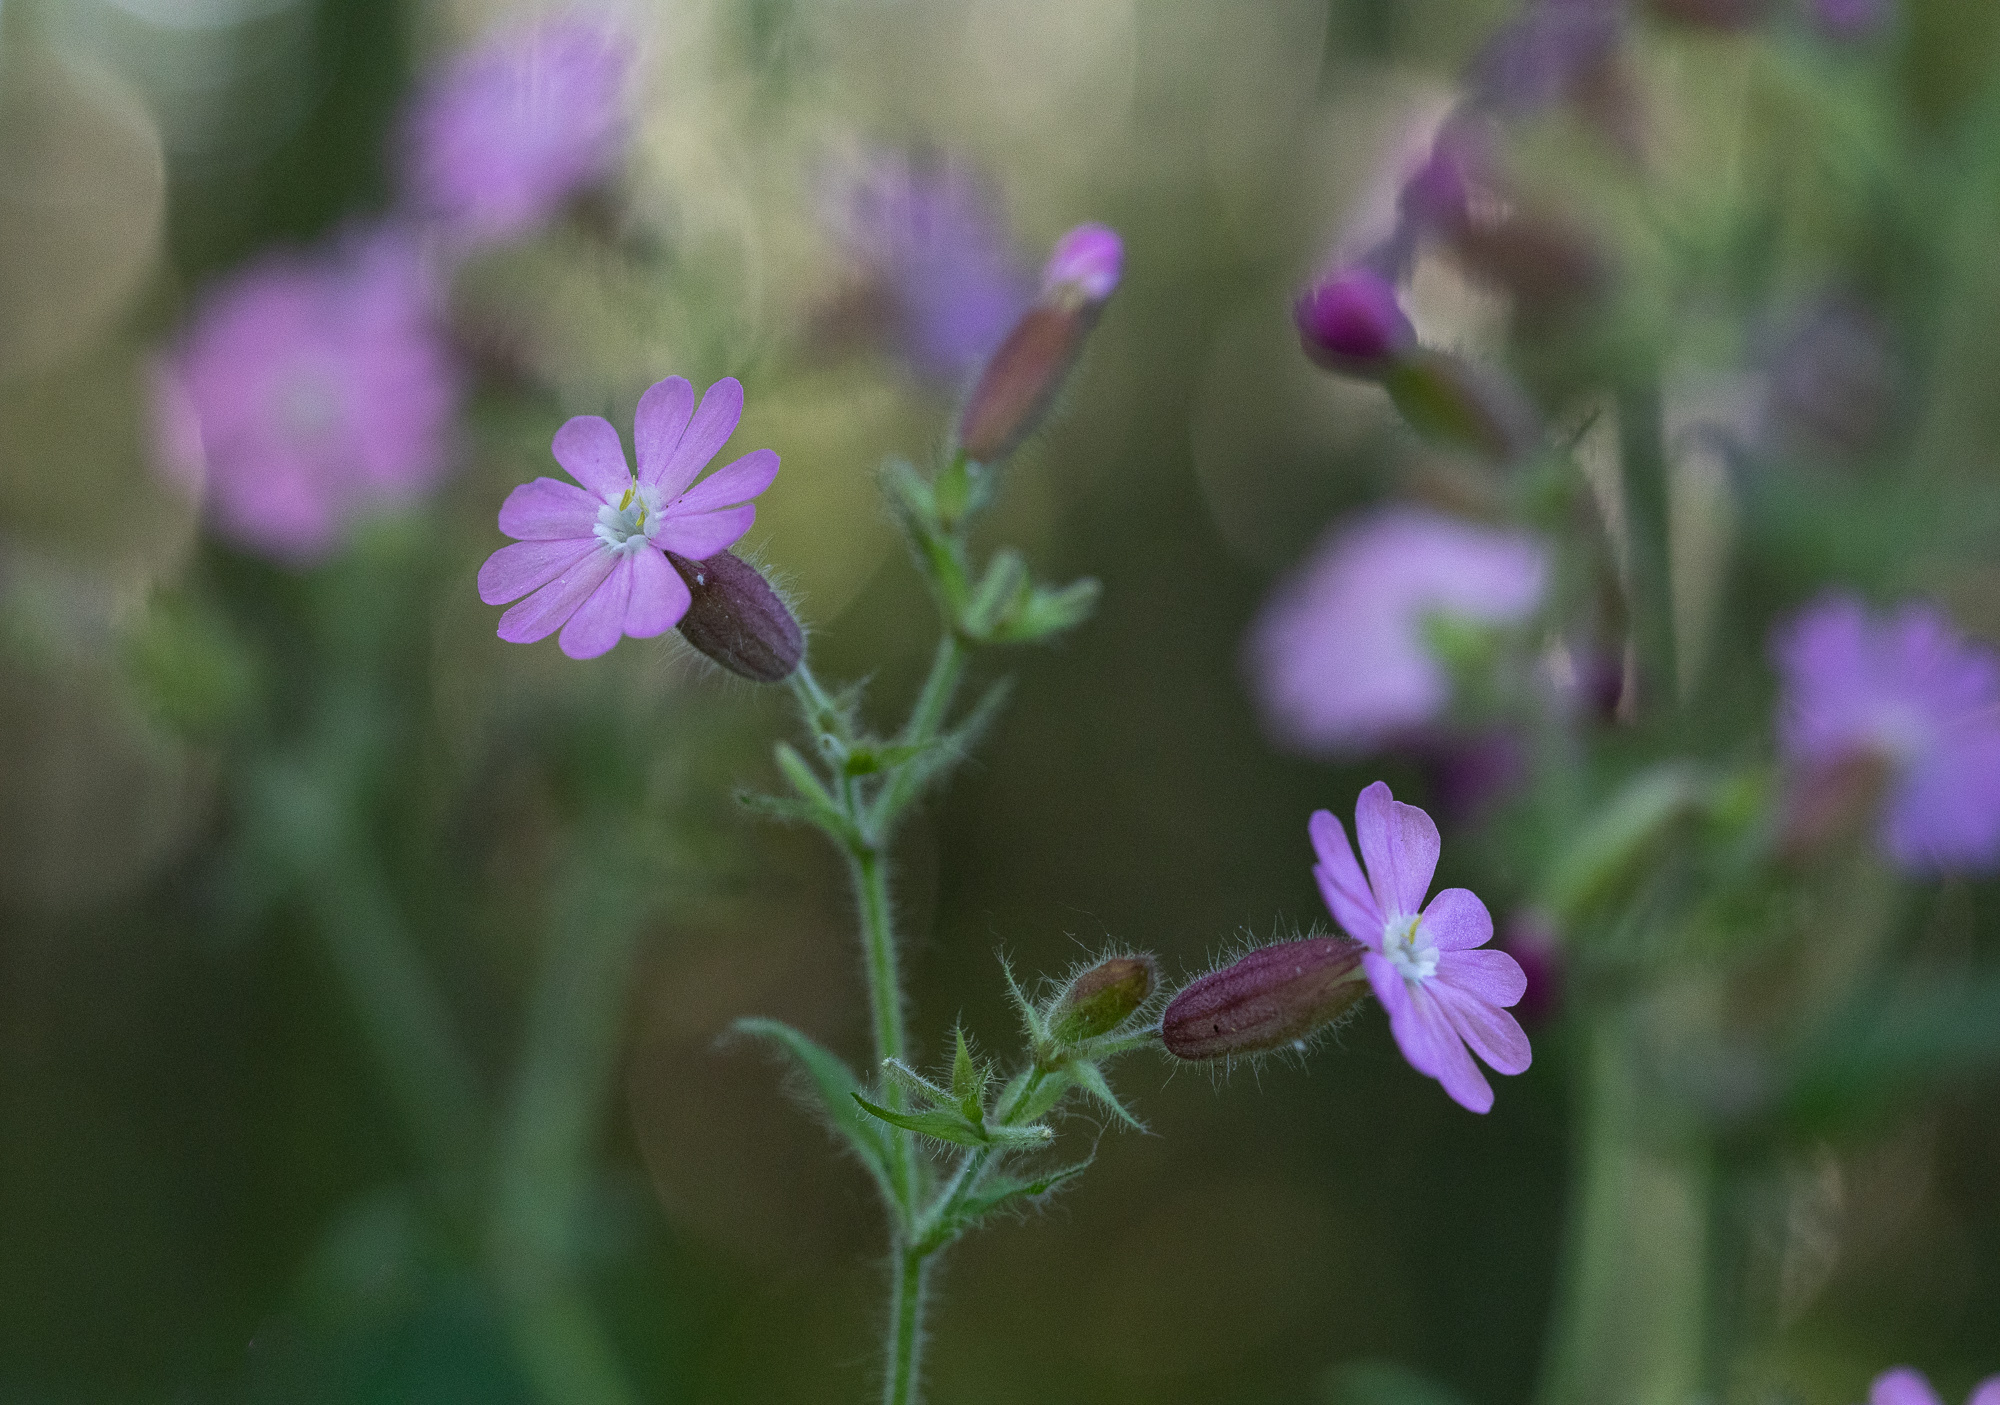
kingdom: Plantae
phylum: Tracheophyta
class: Magnoliopsida
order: Caryophyllales
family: Caryophyllaceae
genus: Silene
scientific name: Silene dioica
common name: Red campion
